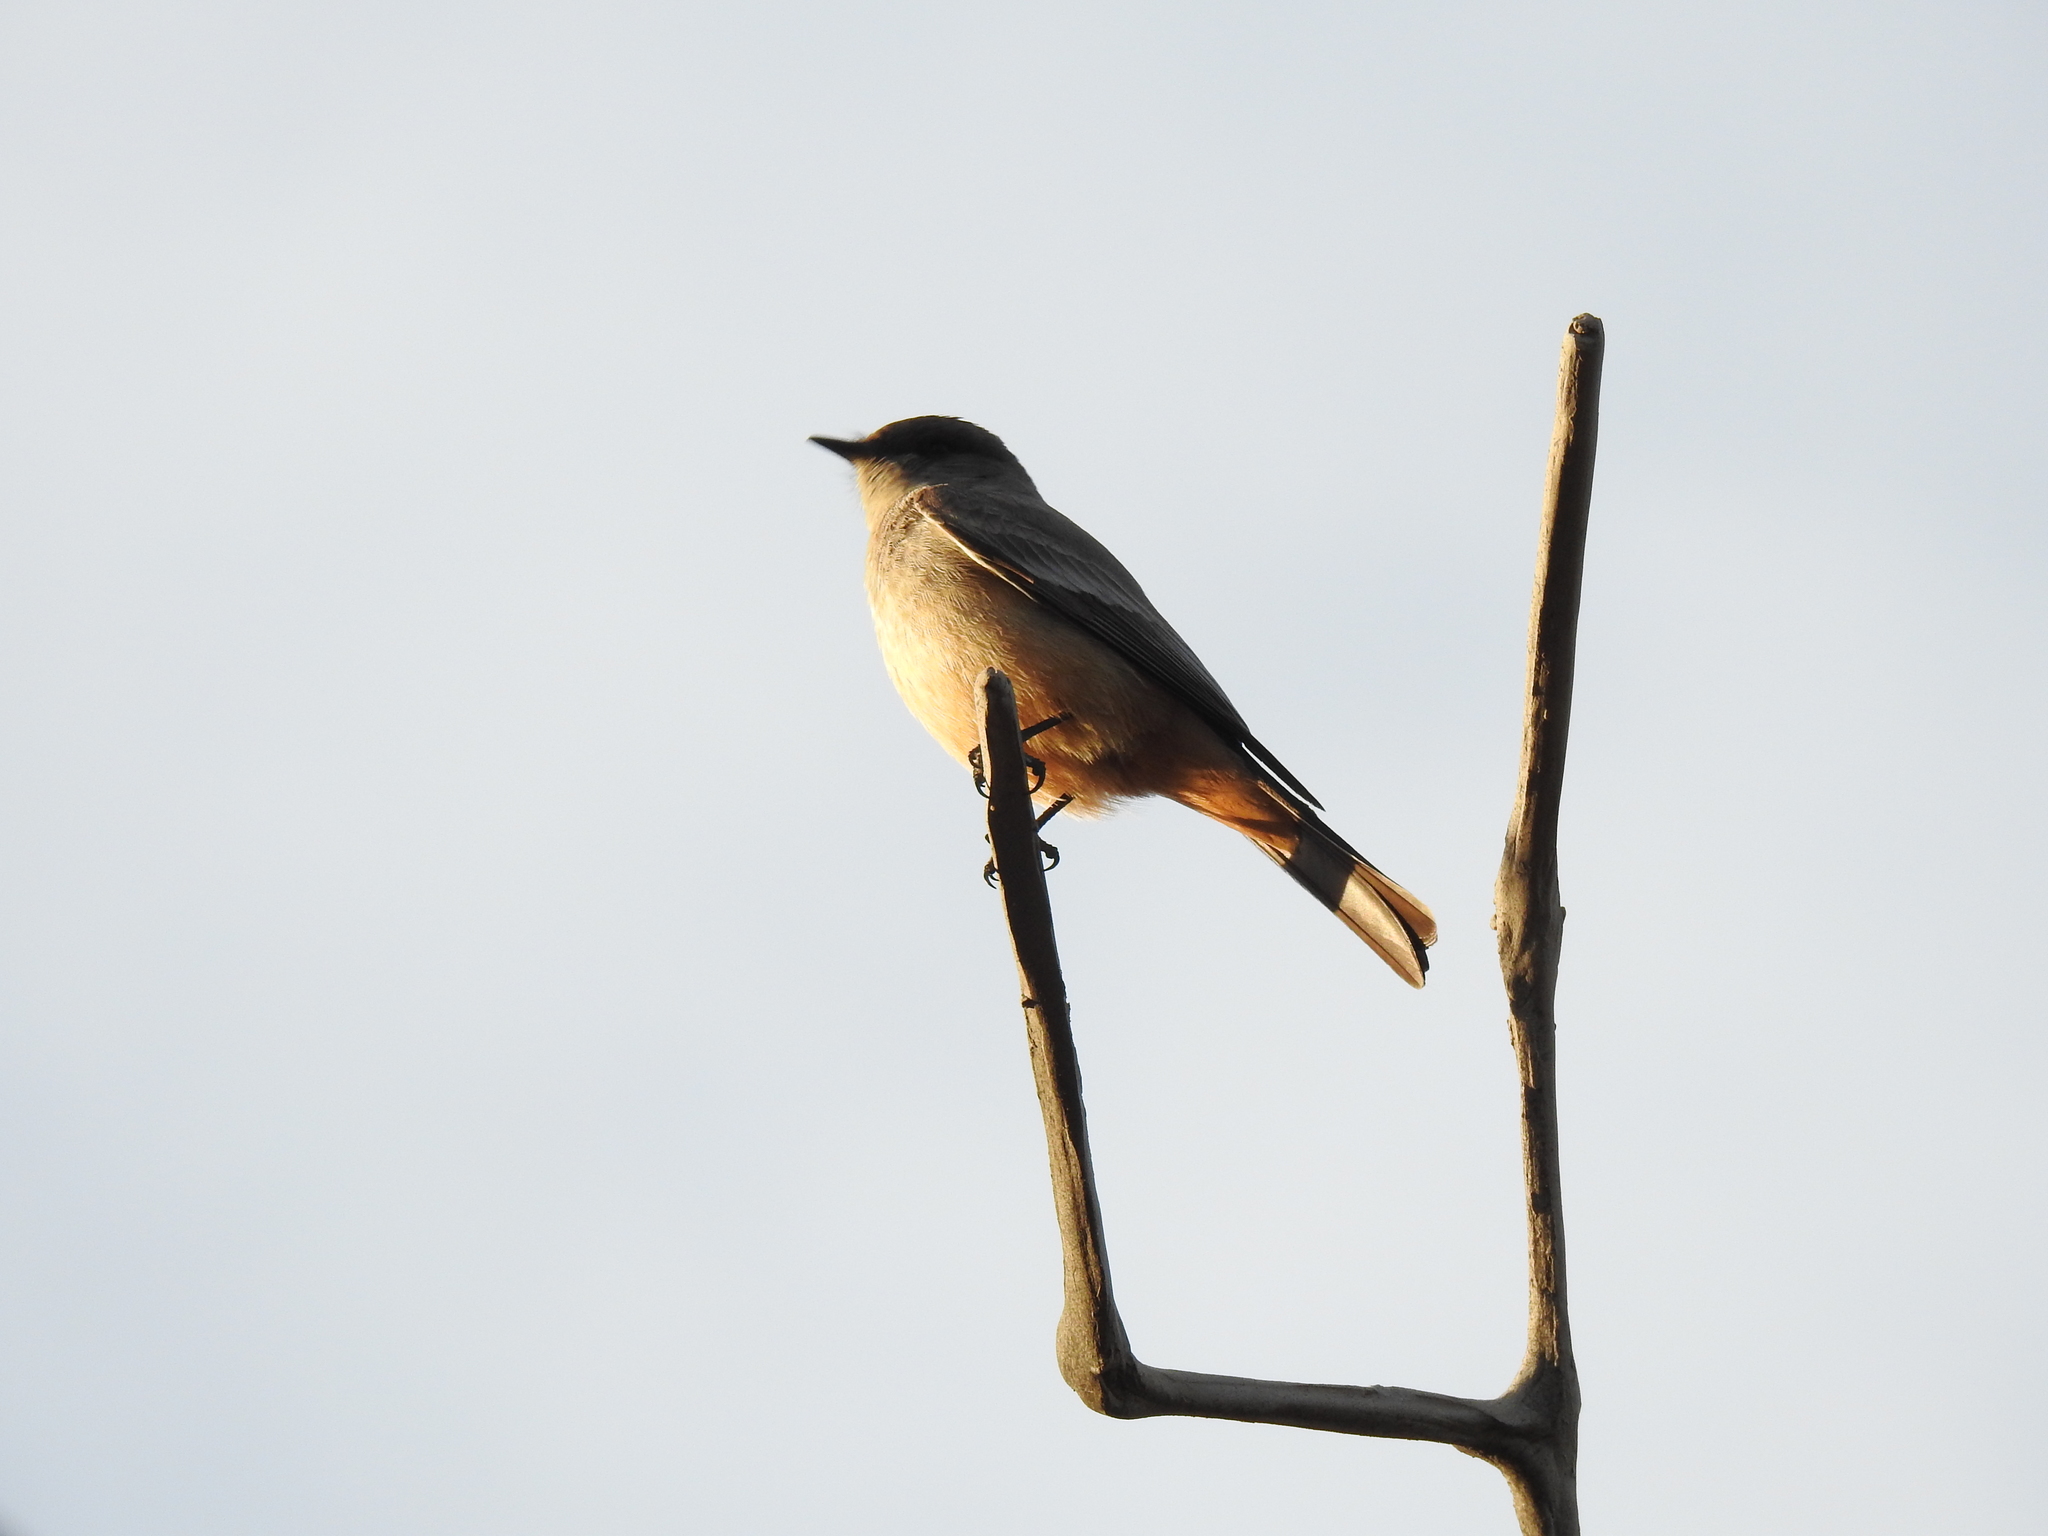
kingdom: Animalia
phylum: Chordata
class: Aves
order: Passeriformes
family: Tyrannidae
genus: Sayornis
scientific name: Sayornis saya
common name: Say's phoebe
